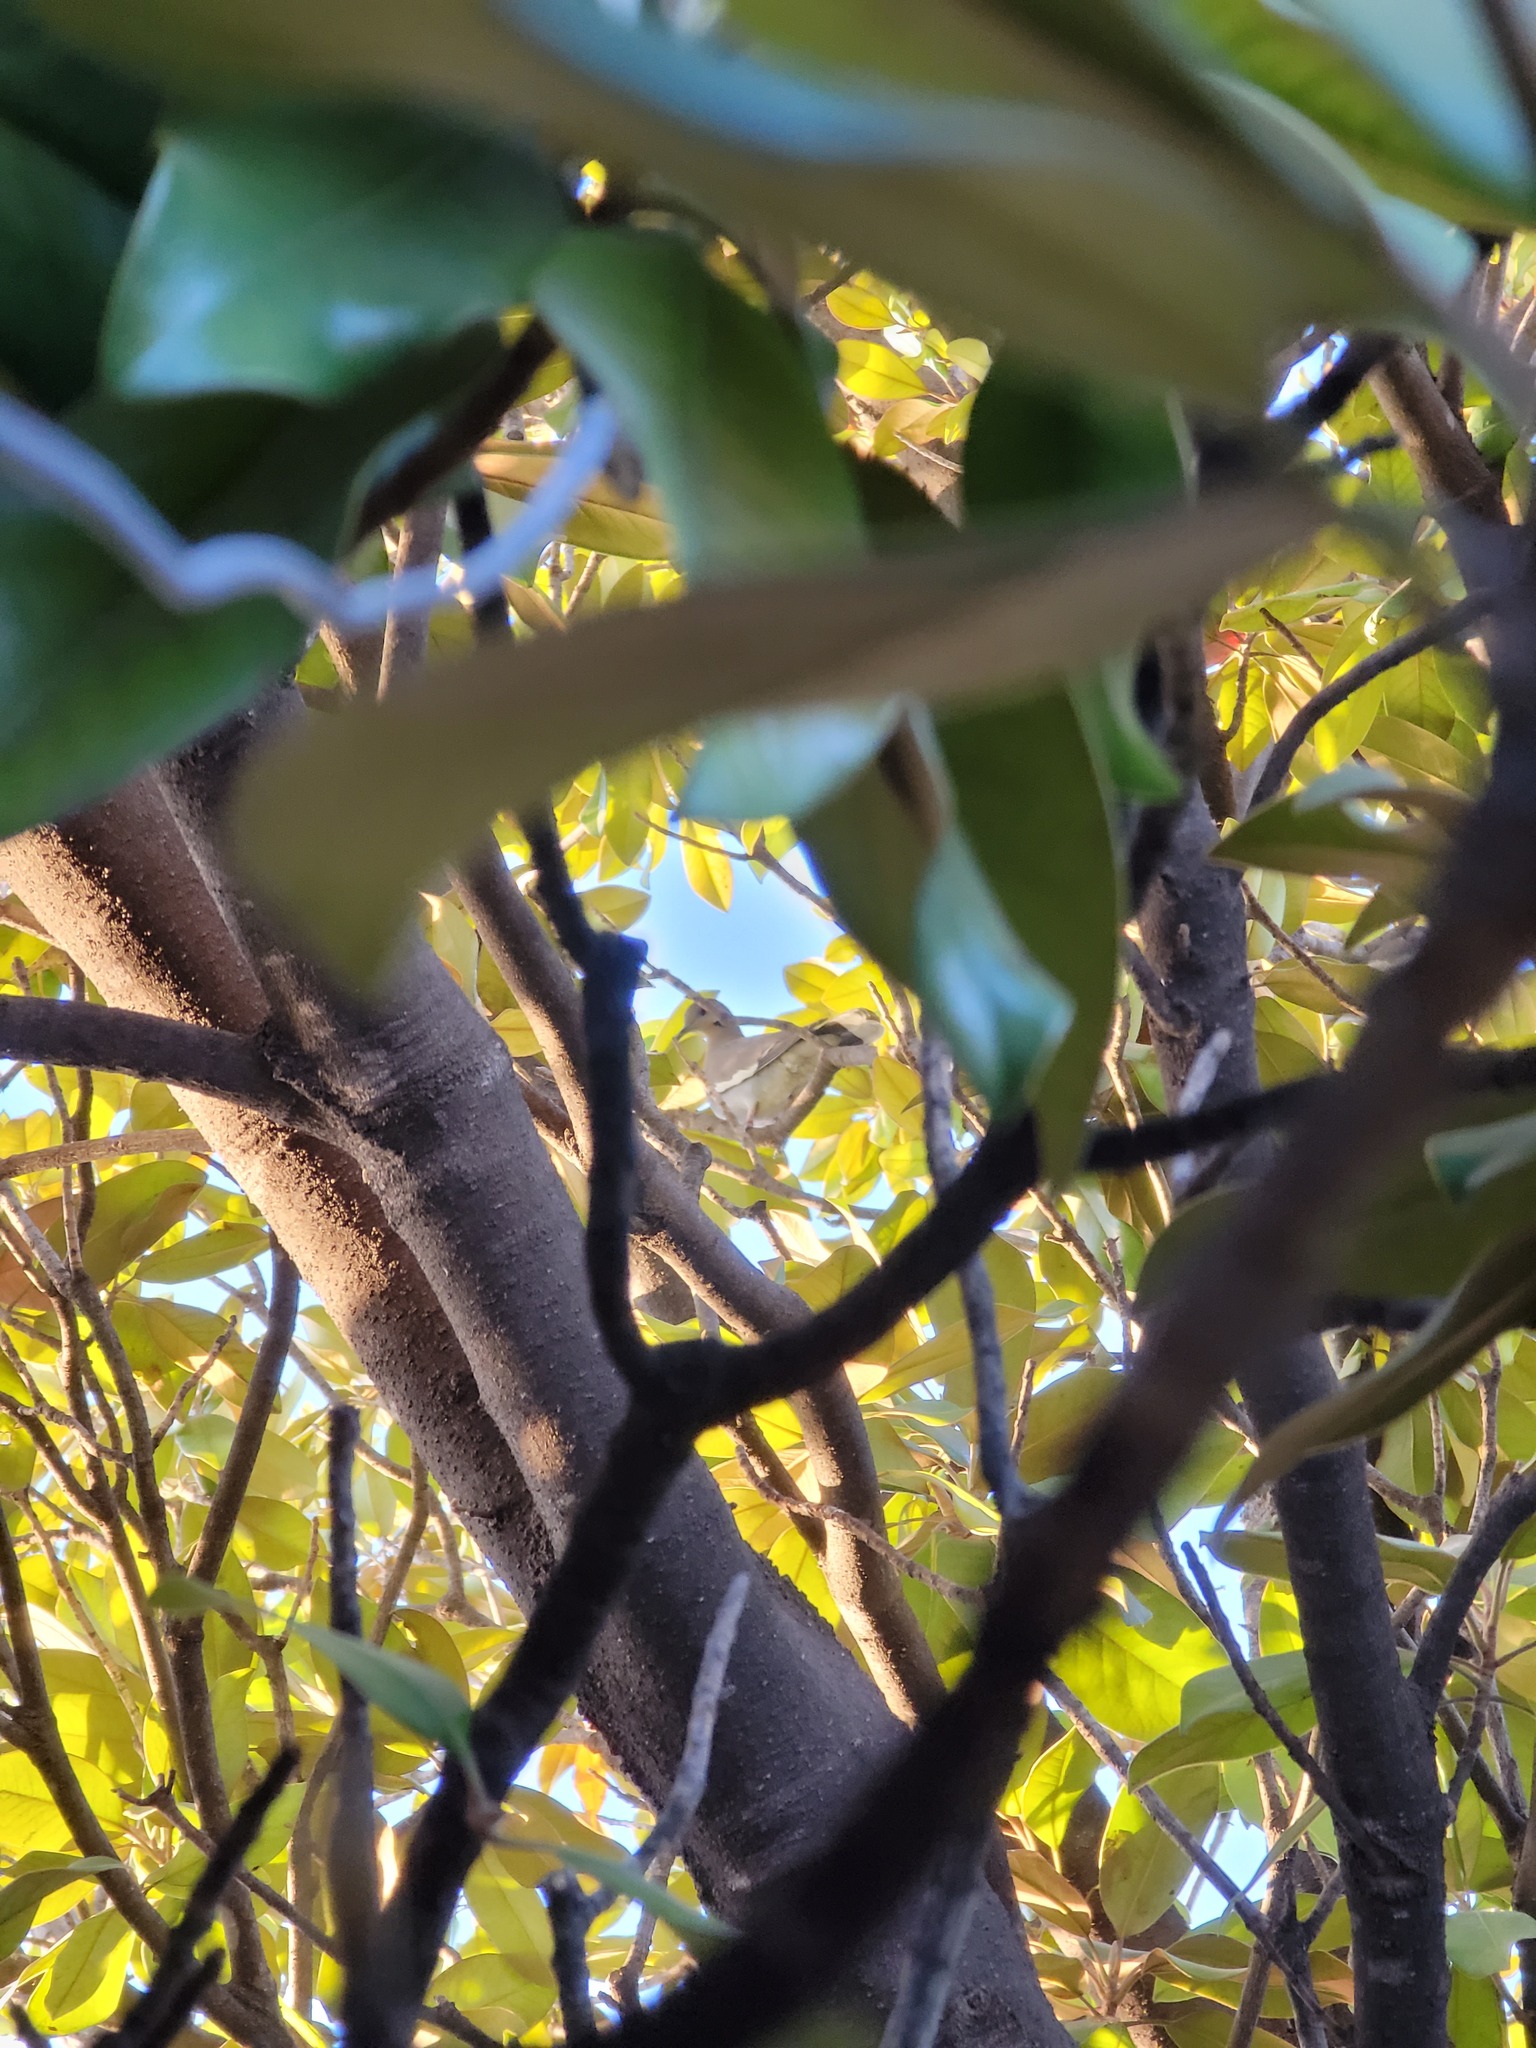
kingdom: Animalia
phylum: Chordata
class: Aves
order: Columbiformes
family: Columbidae
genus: Zenaida
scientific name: Zenaida asiatica
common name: White-winged dove
